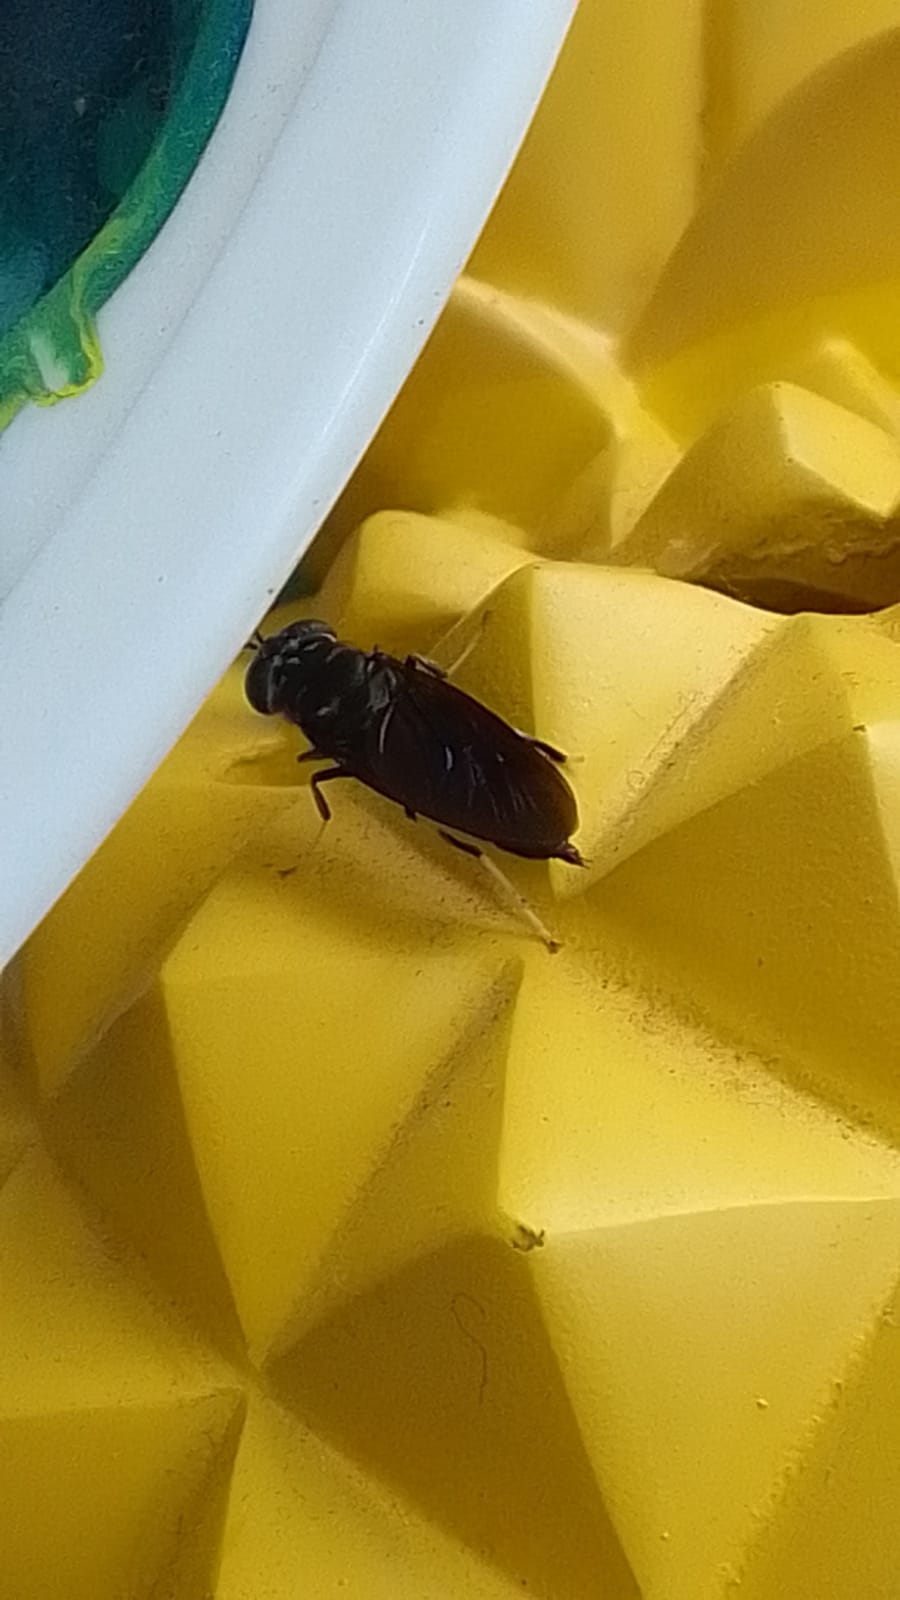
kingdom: Animalia
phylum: Arthropoda
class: Insecta
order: Diptera
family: Stratiomyidae
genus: Hermetia
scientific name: Hermetia illucens
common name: Black soldier fly
